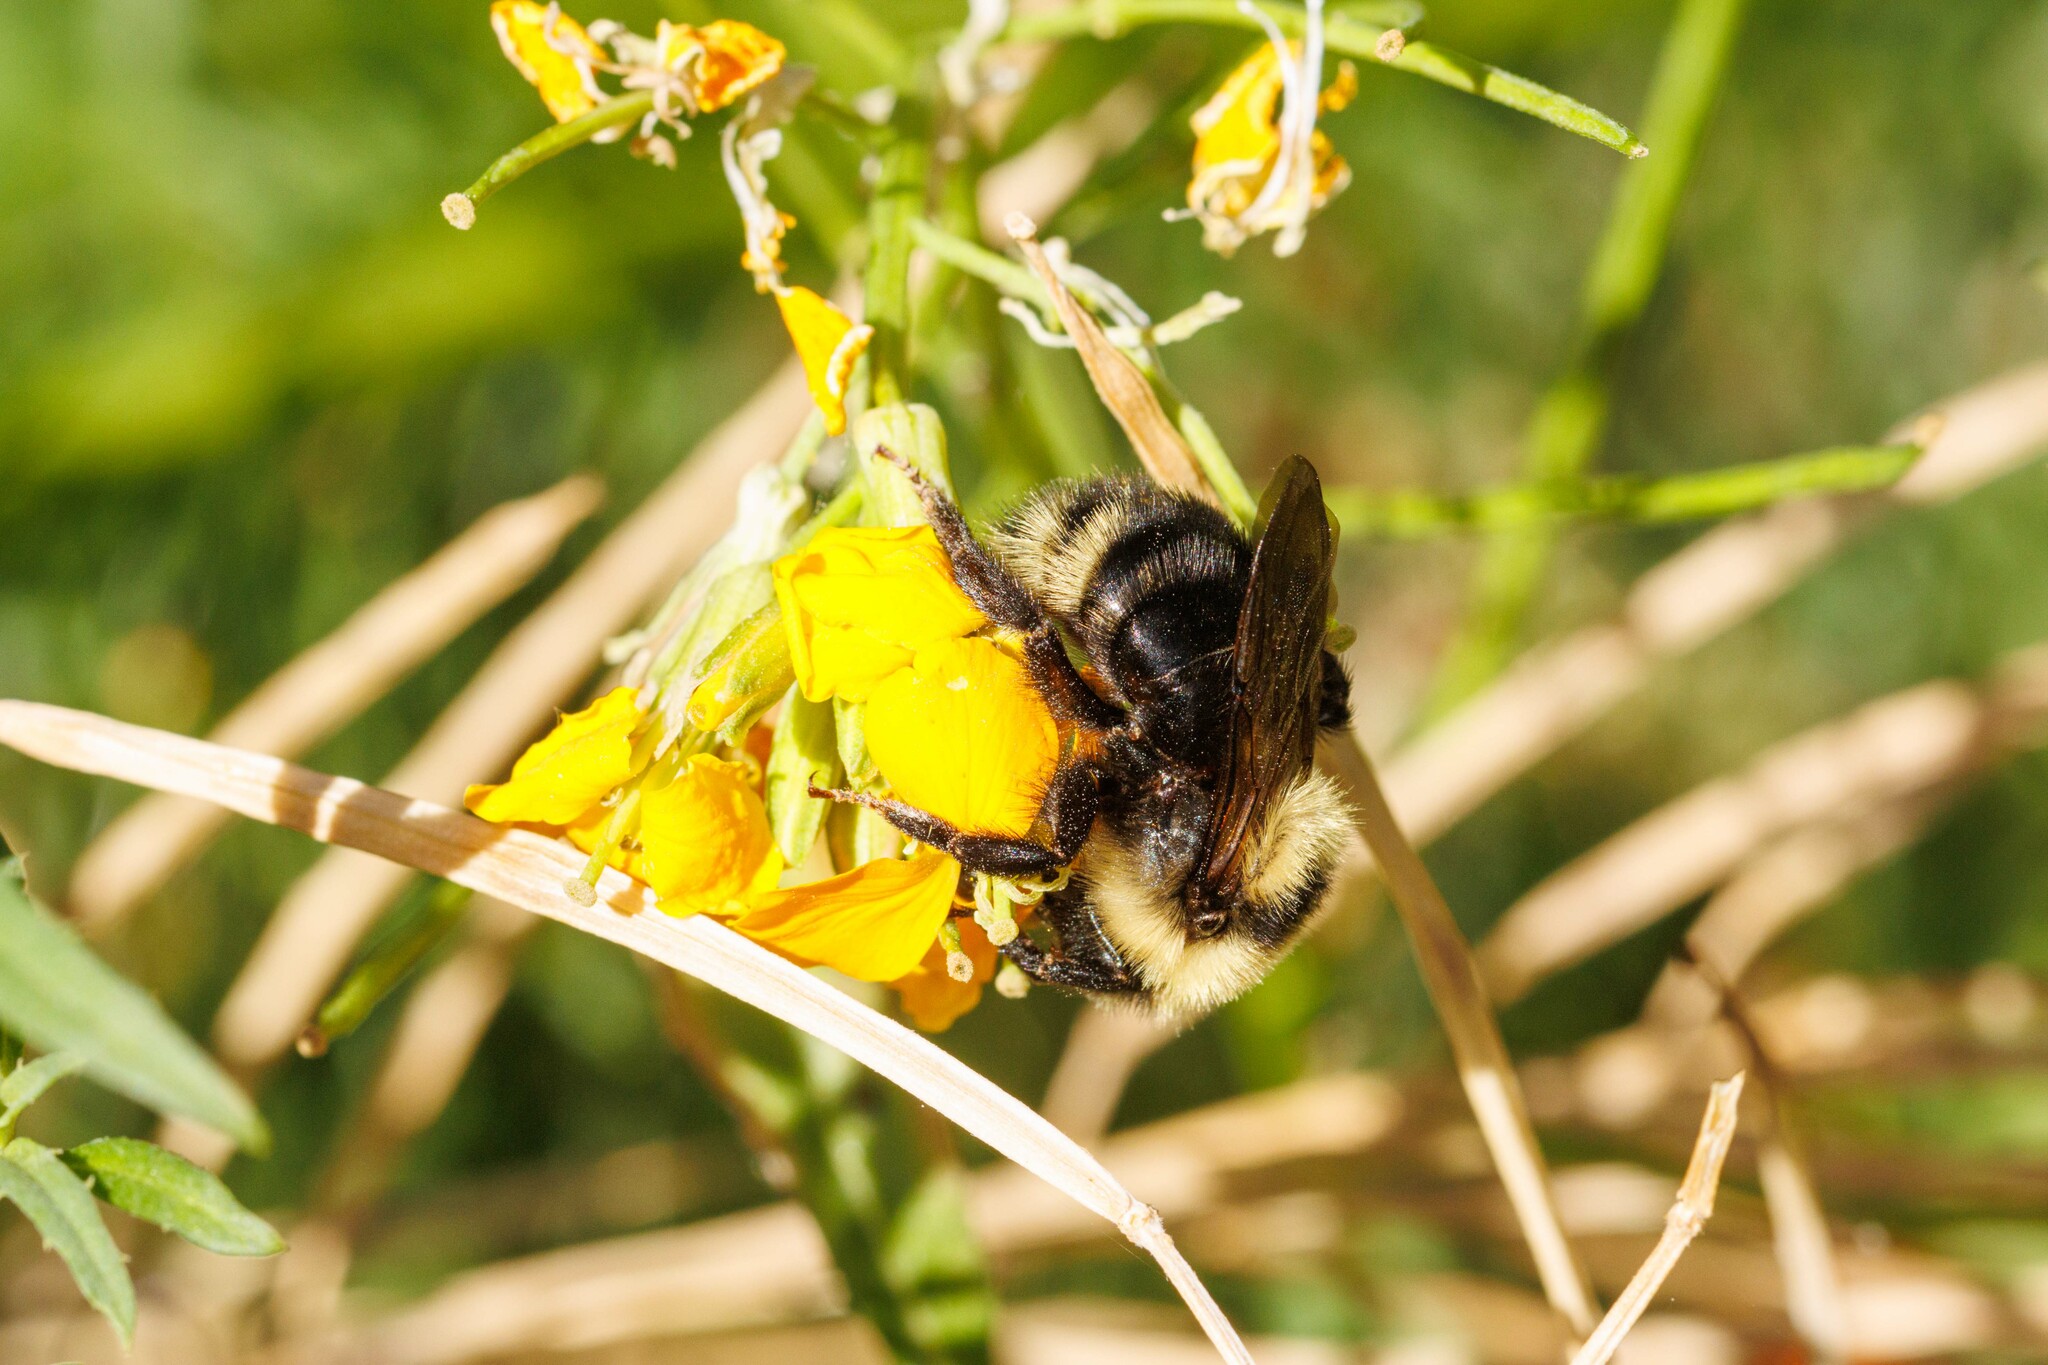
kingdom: Animalia
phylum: Arthropoda
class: Insecta
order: Hymenoptera
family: Apidae
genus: Bombus
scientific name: Bombus insularis
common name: Indiscriminate cuckoo bumble bee
